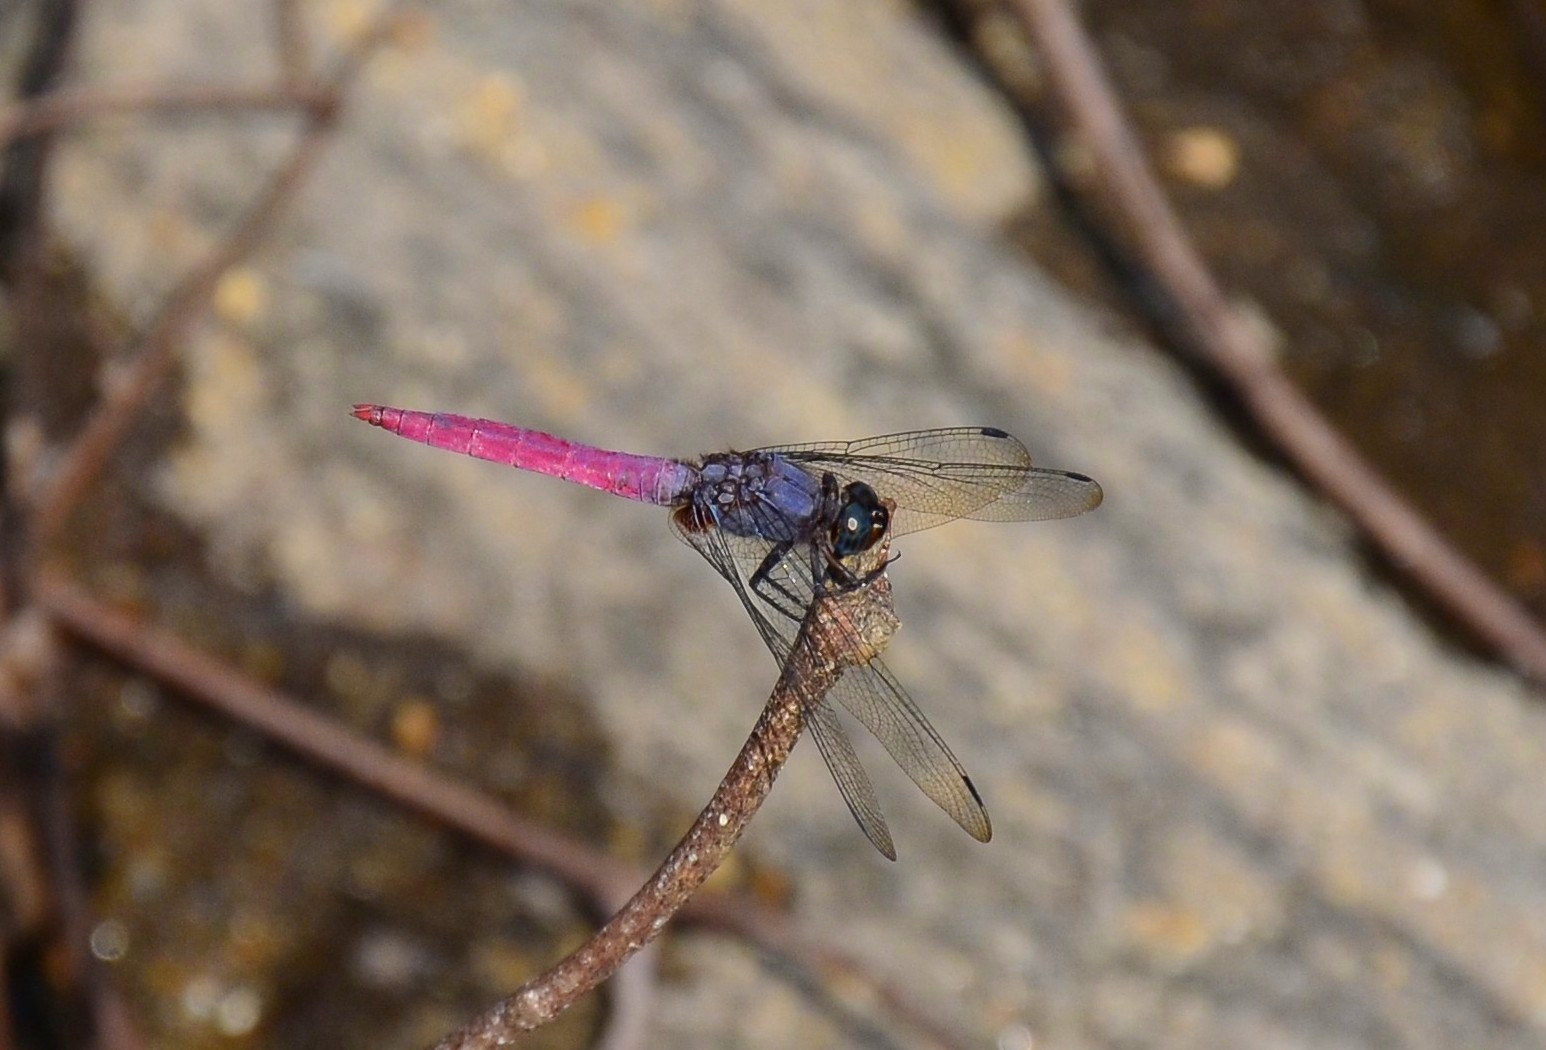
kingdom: Animalia
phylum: Arthropoda
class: Insecta
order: Odonata
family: Libellulidae
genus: Orthetrum
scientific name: Orthetrum pruinosum
